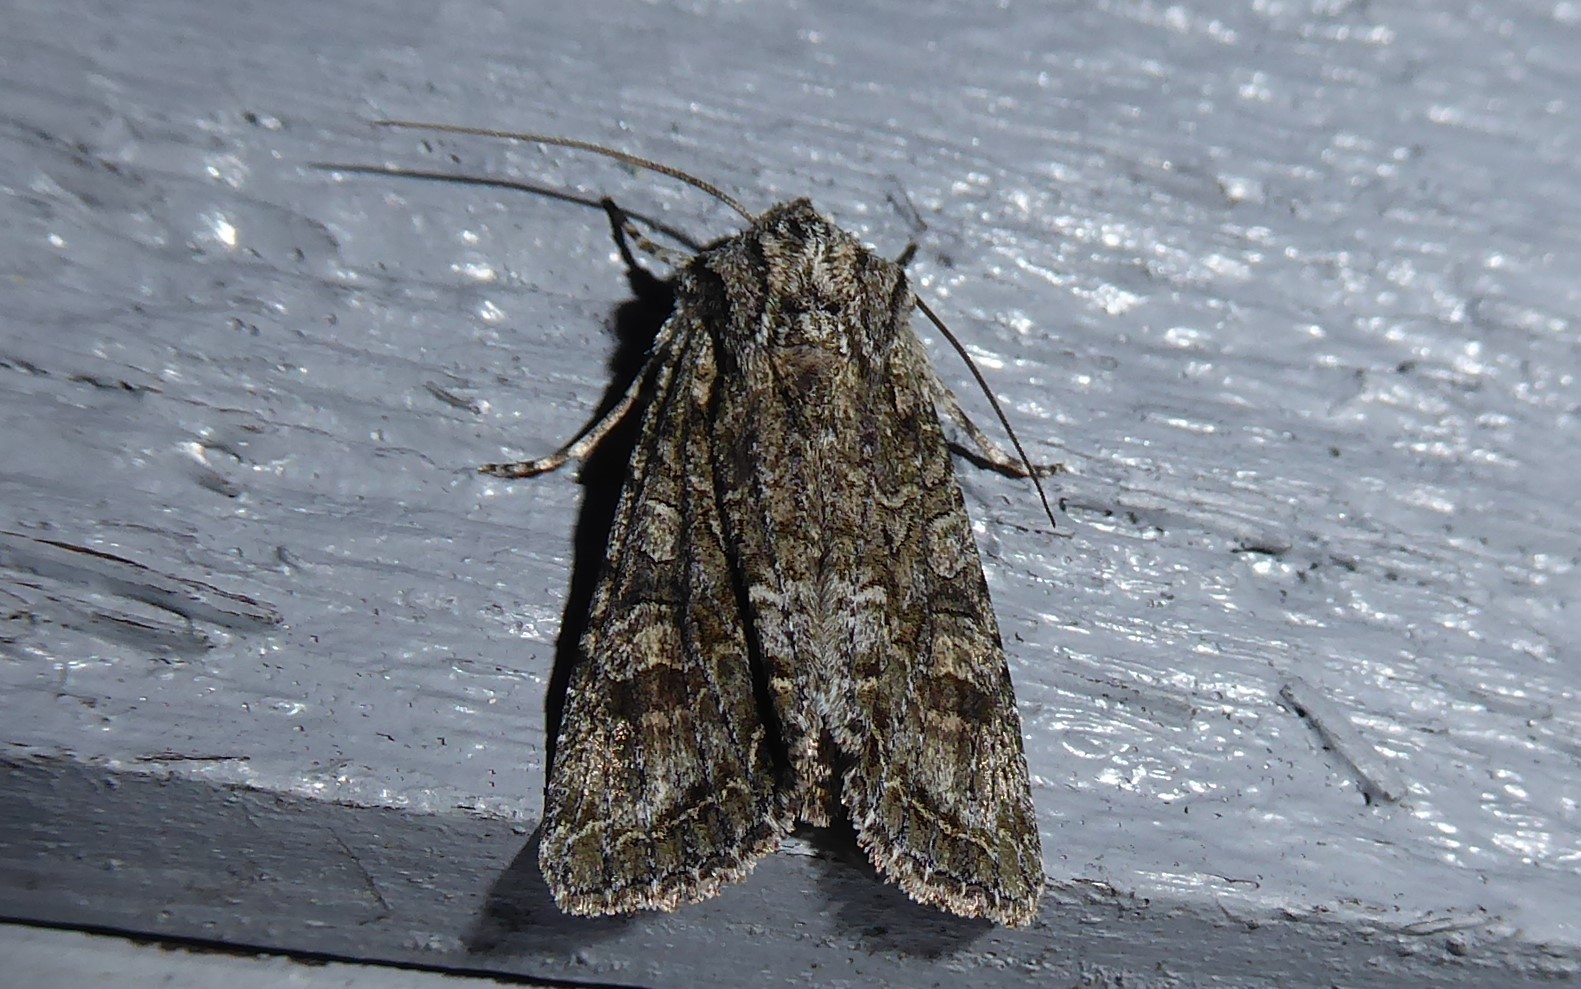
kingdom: Animalia
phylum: Arthropoda
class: Insecta
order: Lepidoptera
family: Noctuidae
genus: Ichneutica
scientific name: Ichneutica mutans
